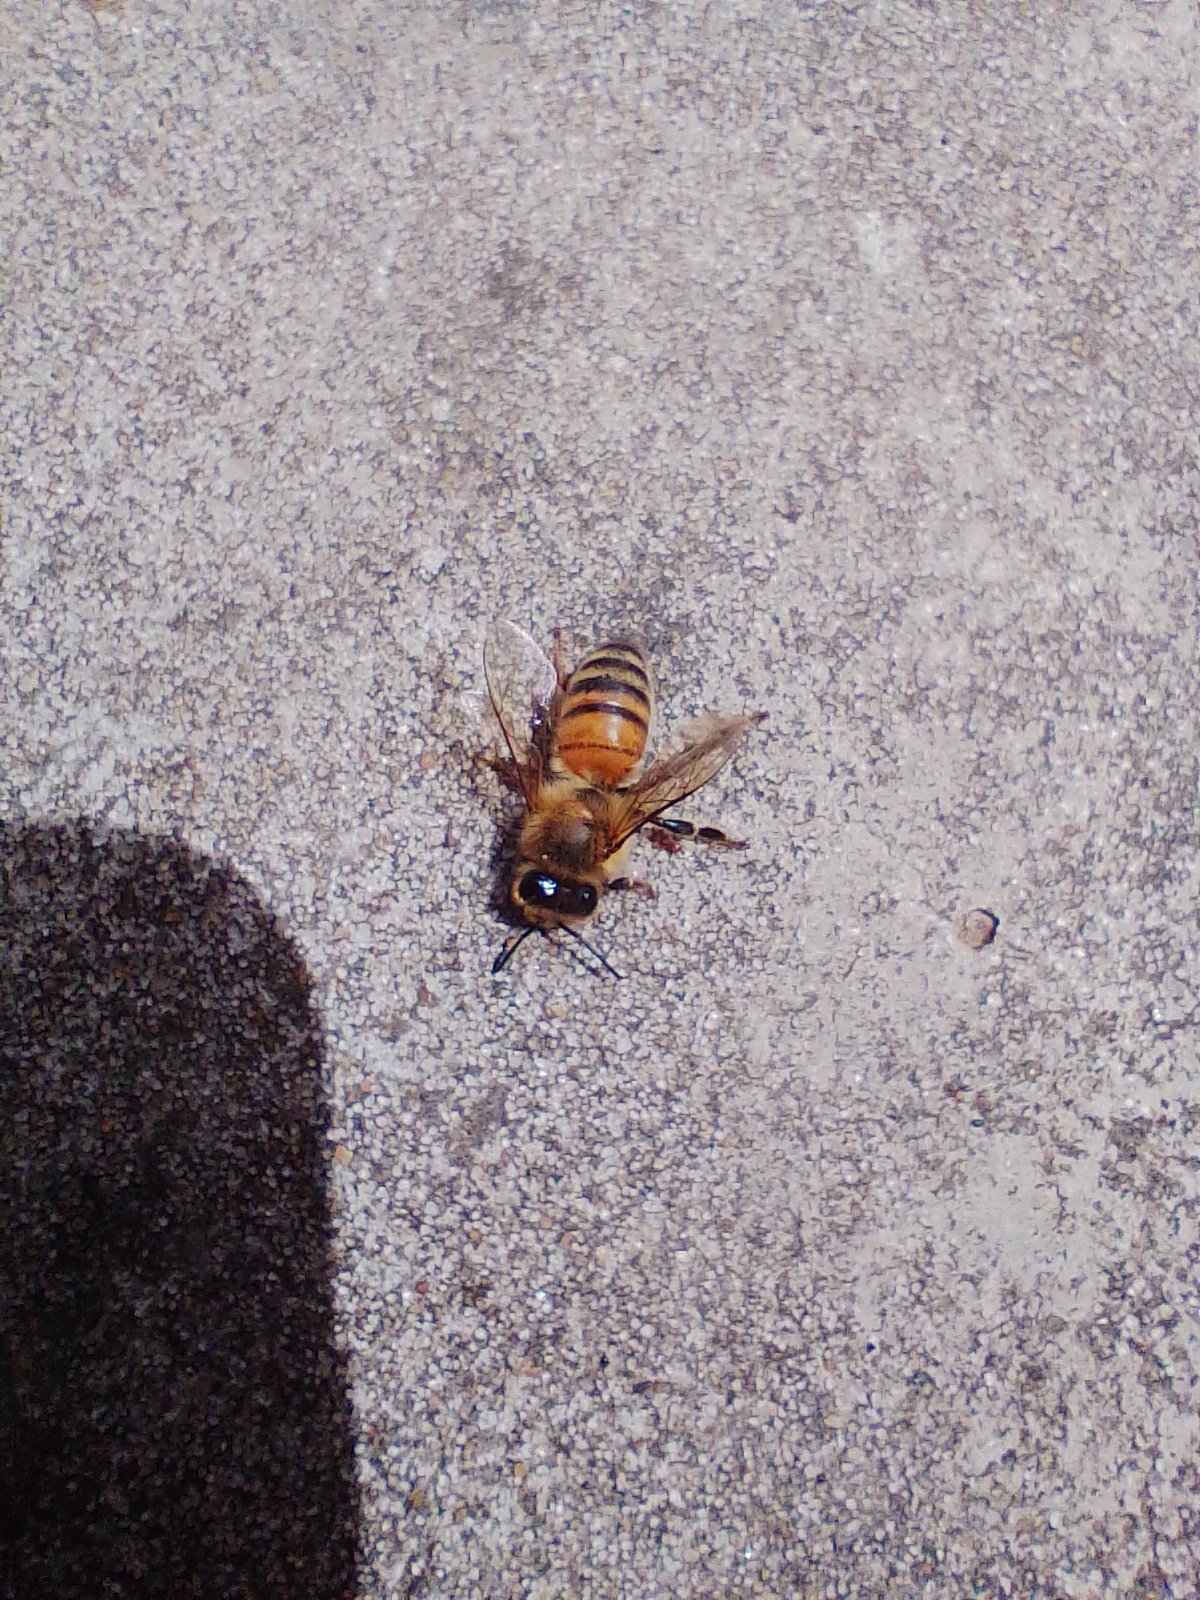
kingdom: Animalia
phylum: Arthropoda
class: Insecta
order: Hymenoptera
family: Apidae
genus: Apis
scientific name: Apis mellifera
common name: Honey bee
